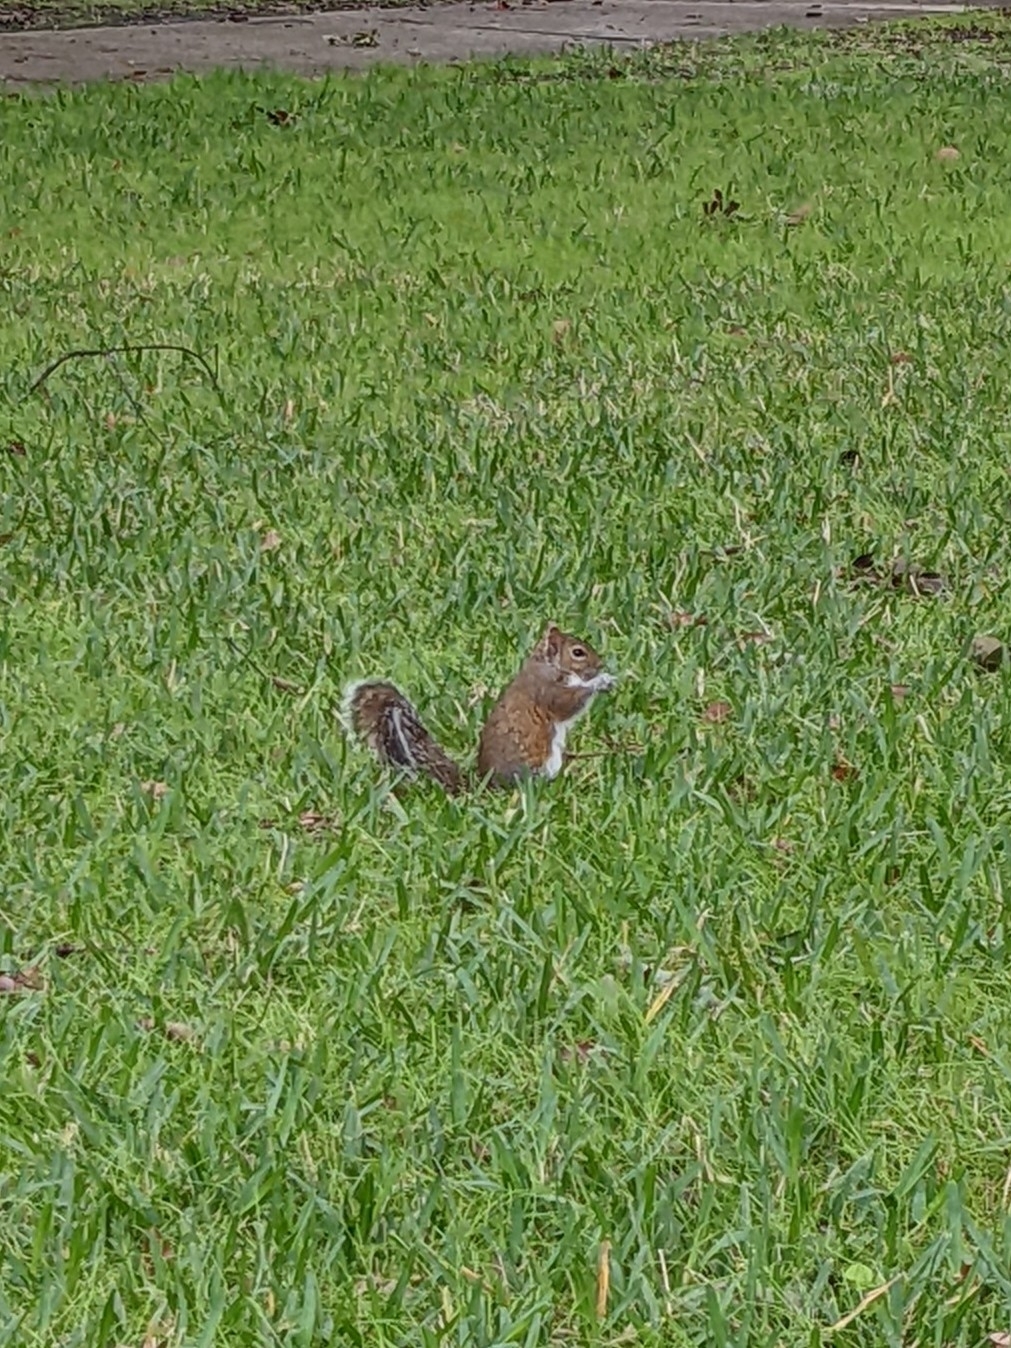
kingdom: Animalia
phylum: Chordata
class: Mammalia
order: Rodentia
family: Sciuridae
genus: Sciurus
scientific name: Sciurus carolinensis
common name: Eastern gray squirrel
